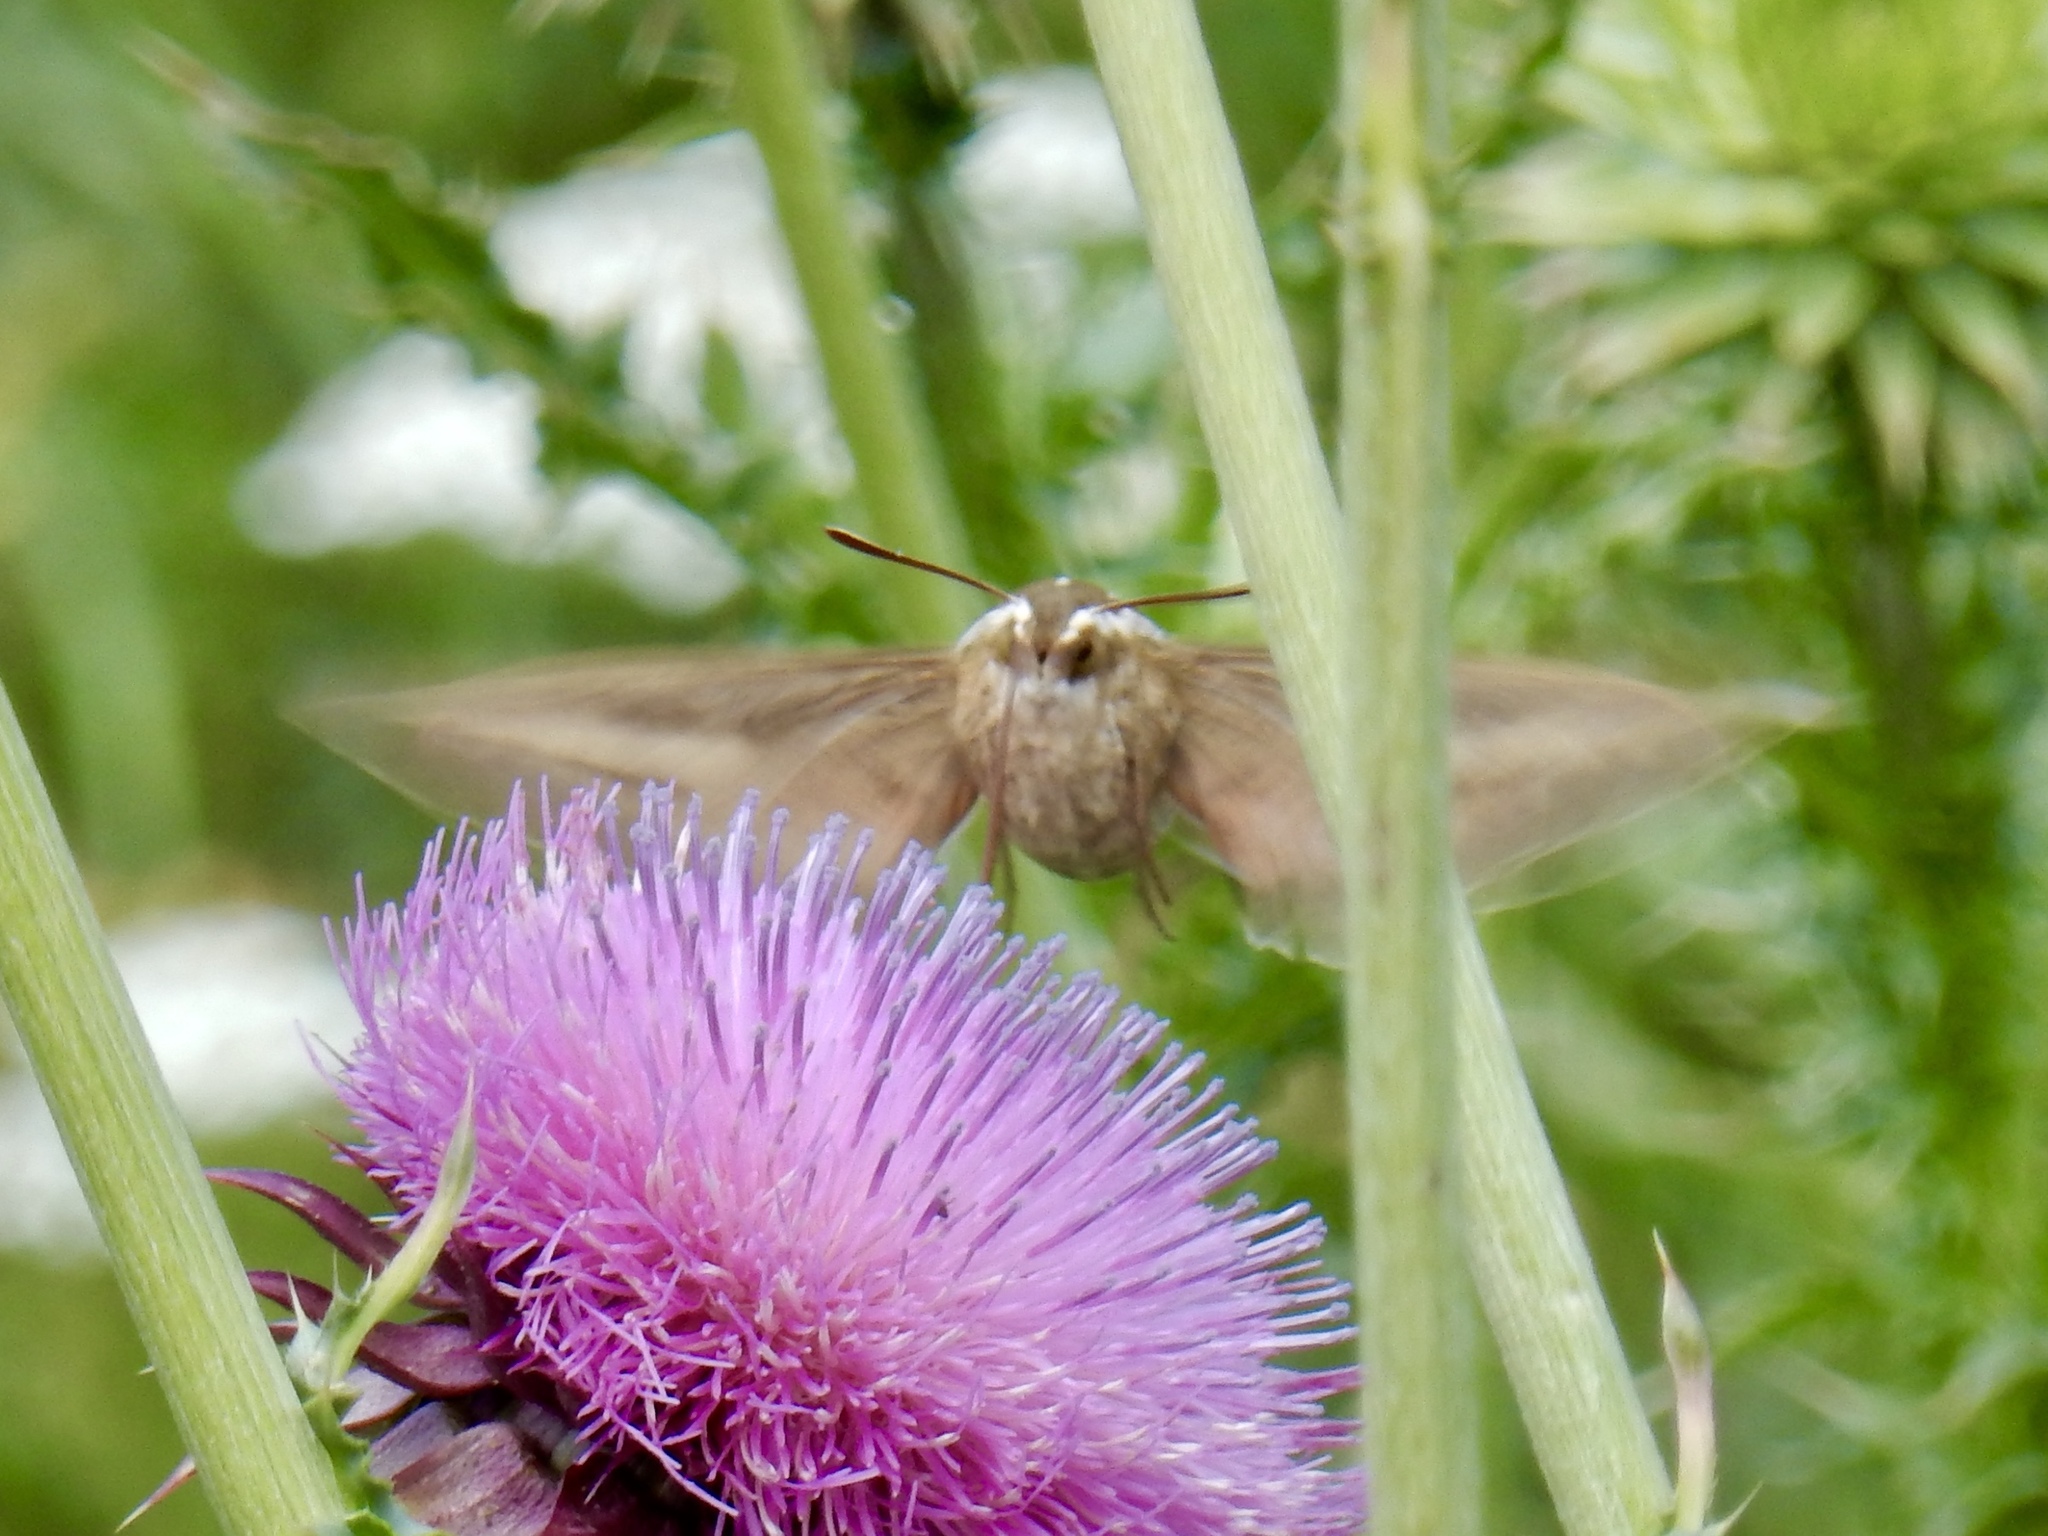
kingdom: Animalia
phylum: Arthropoda
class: Insecta
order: Lepidoptera
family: Sphingidae
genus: Hyles
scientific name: Hyles lineata
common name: White-lined sphinx
